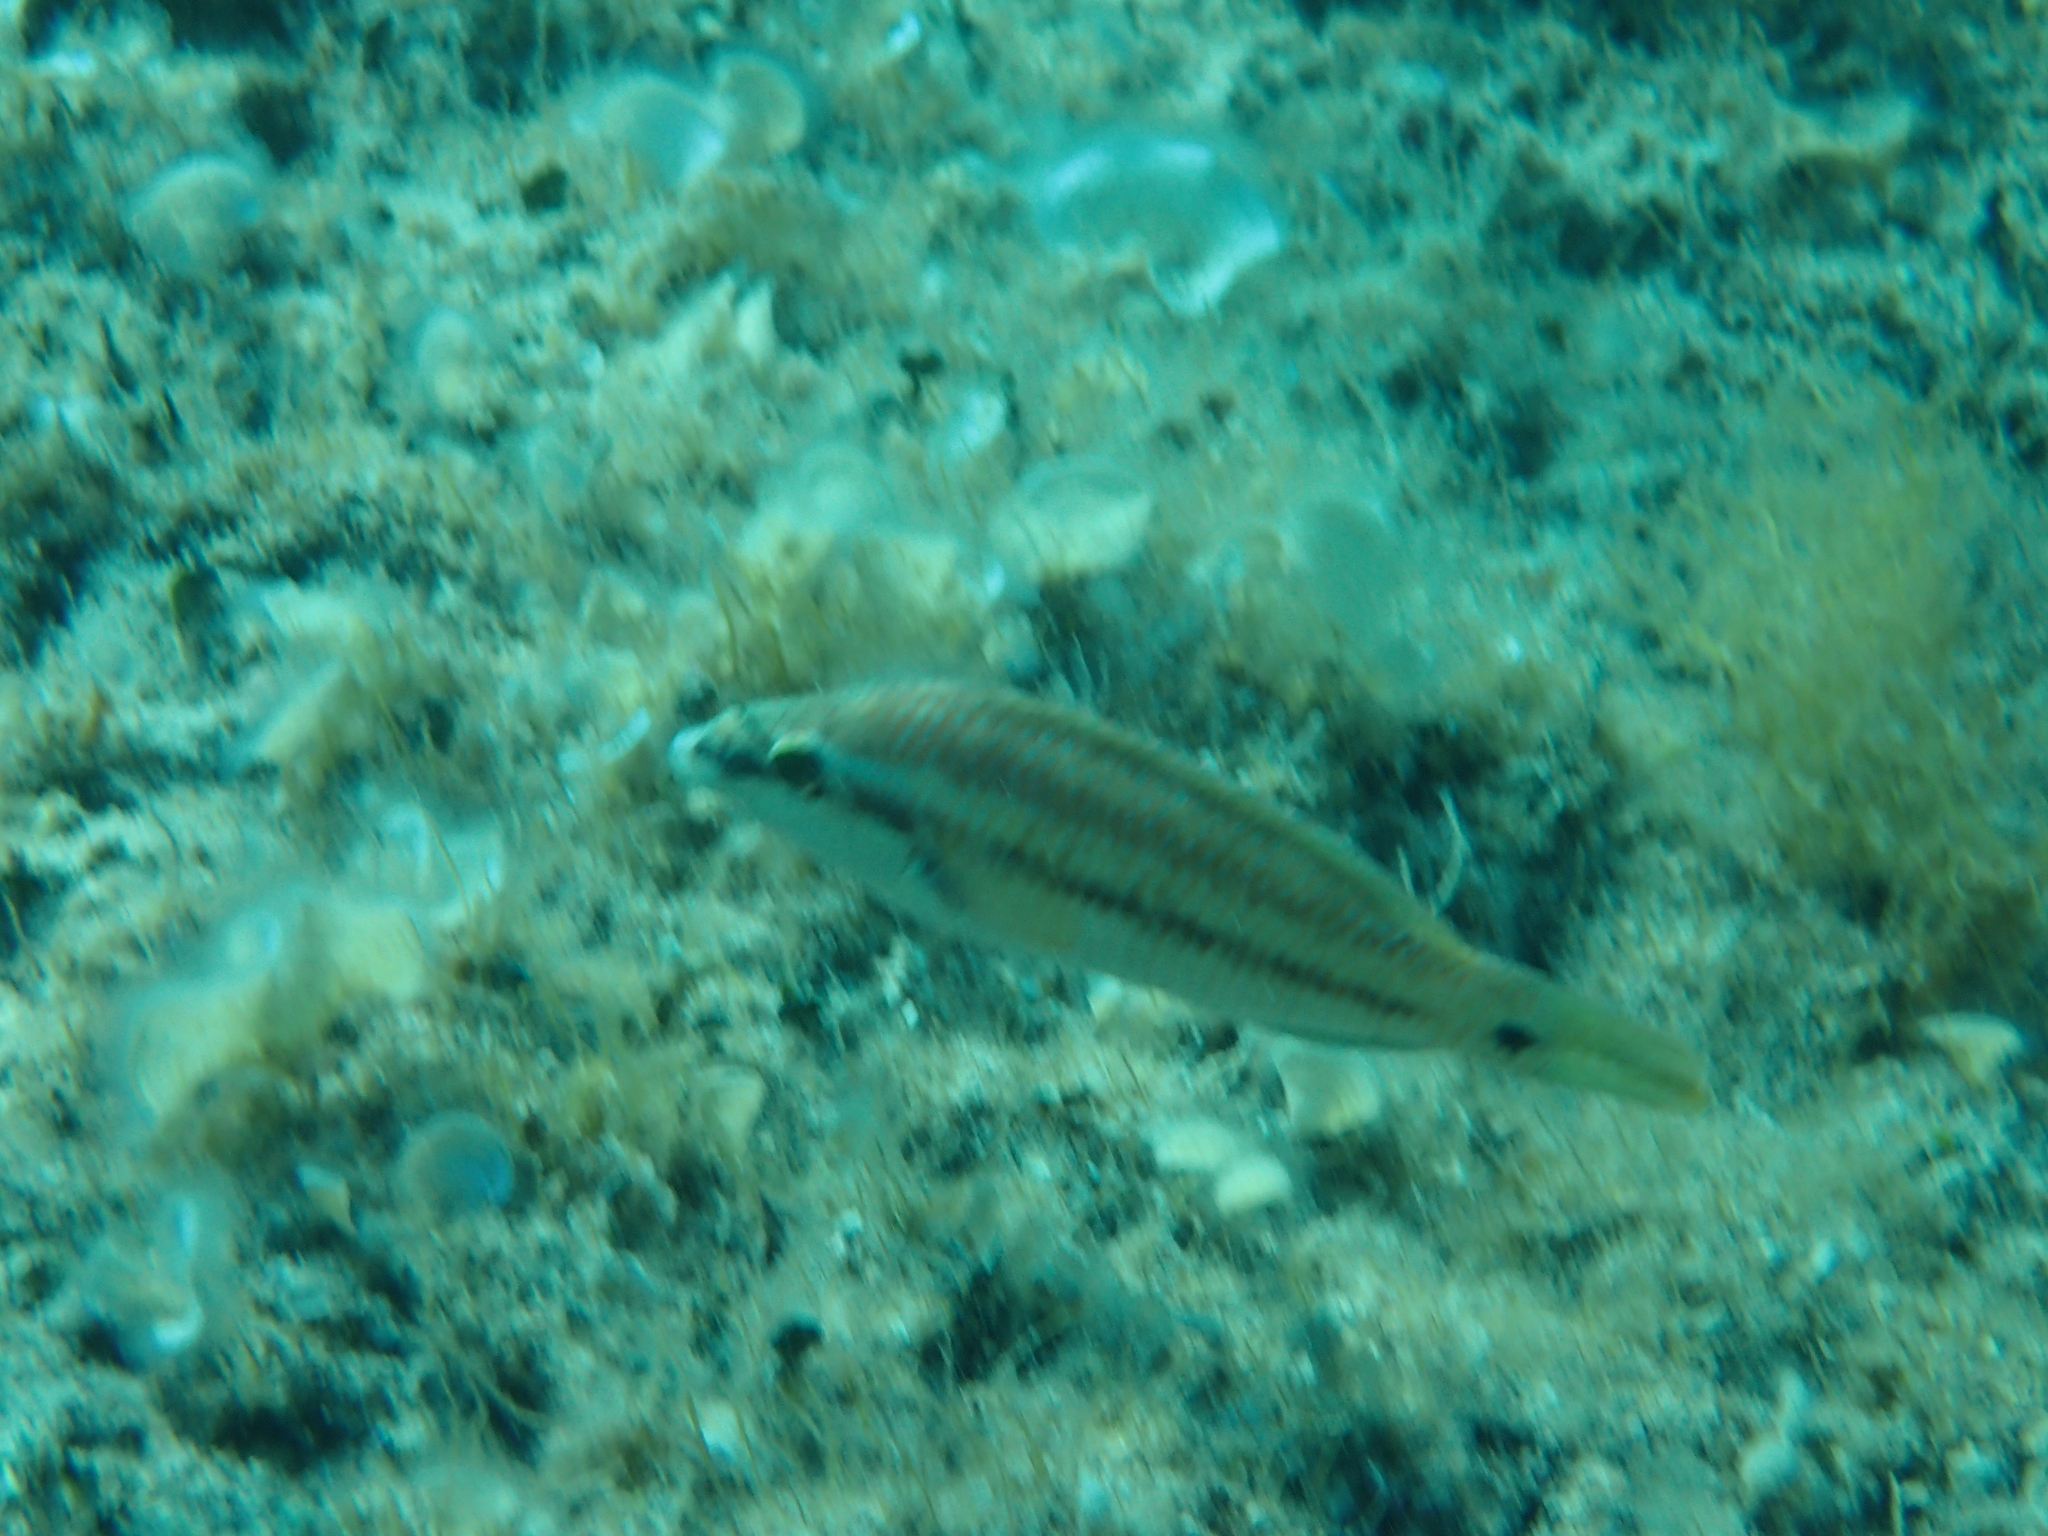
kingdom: Animalia
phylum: Chordata
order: Perciformes
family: Labridae
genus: Symphodus
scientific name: Symphodus tinca
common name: Peacock wrasse
